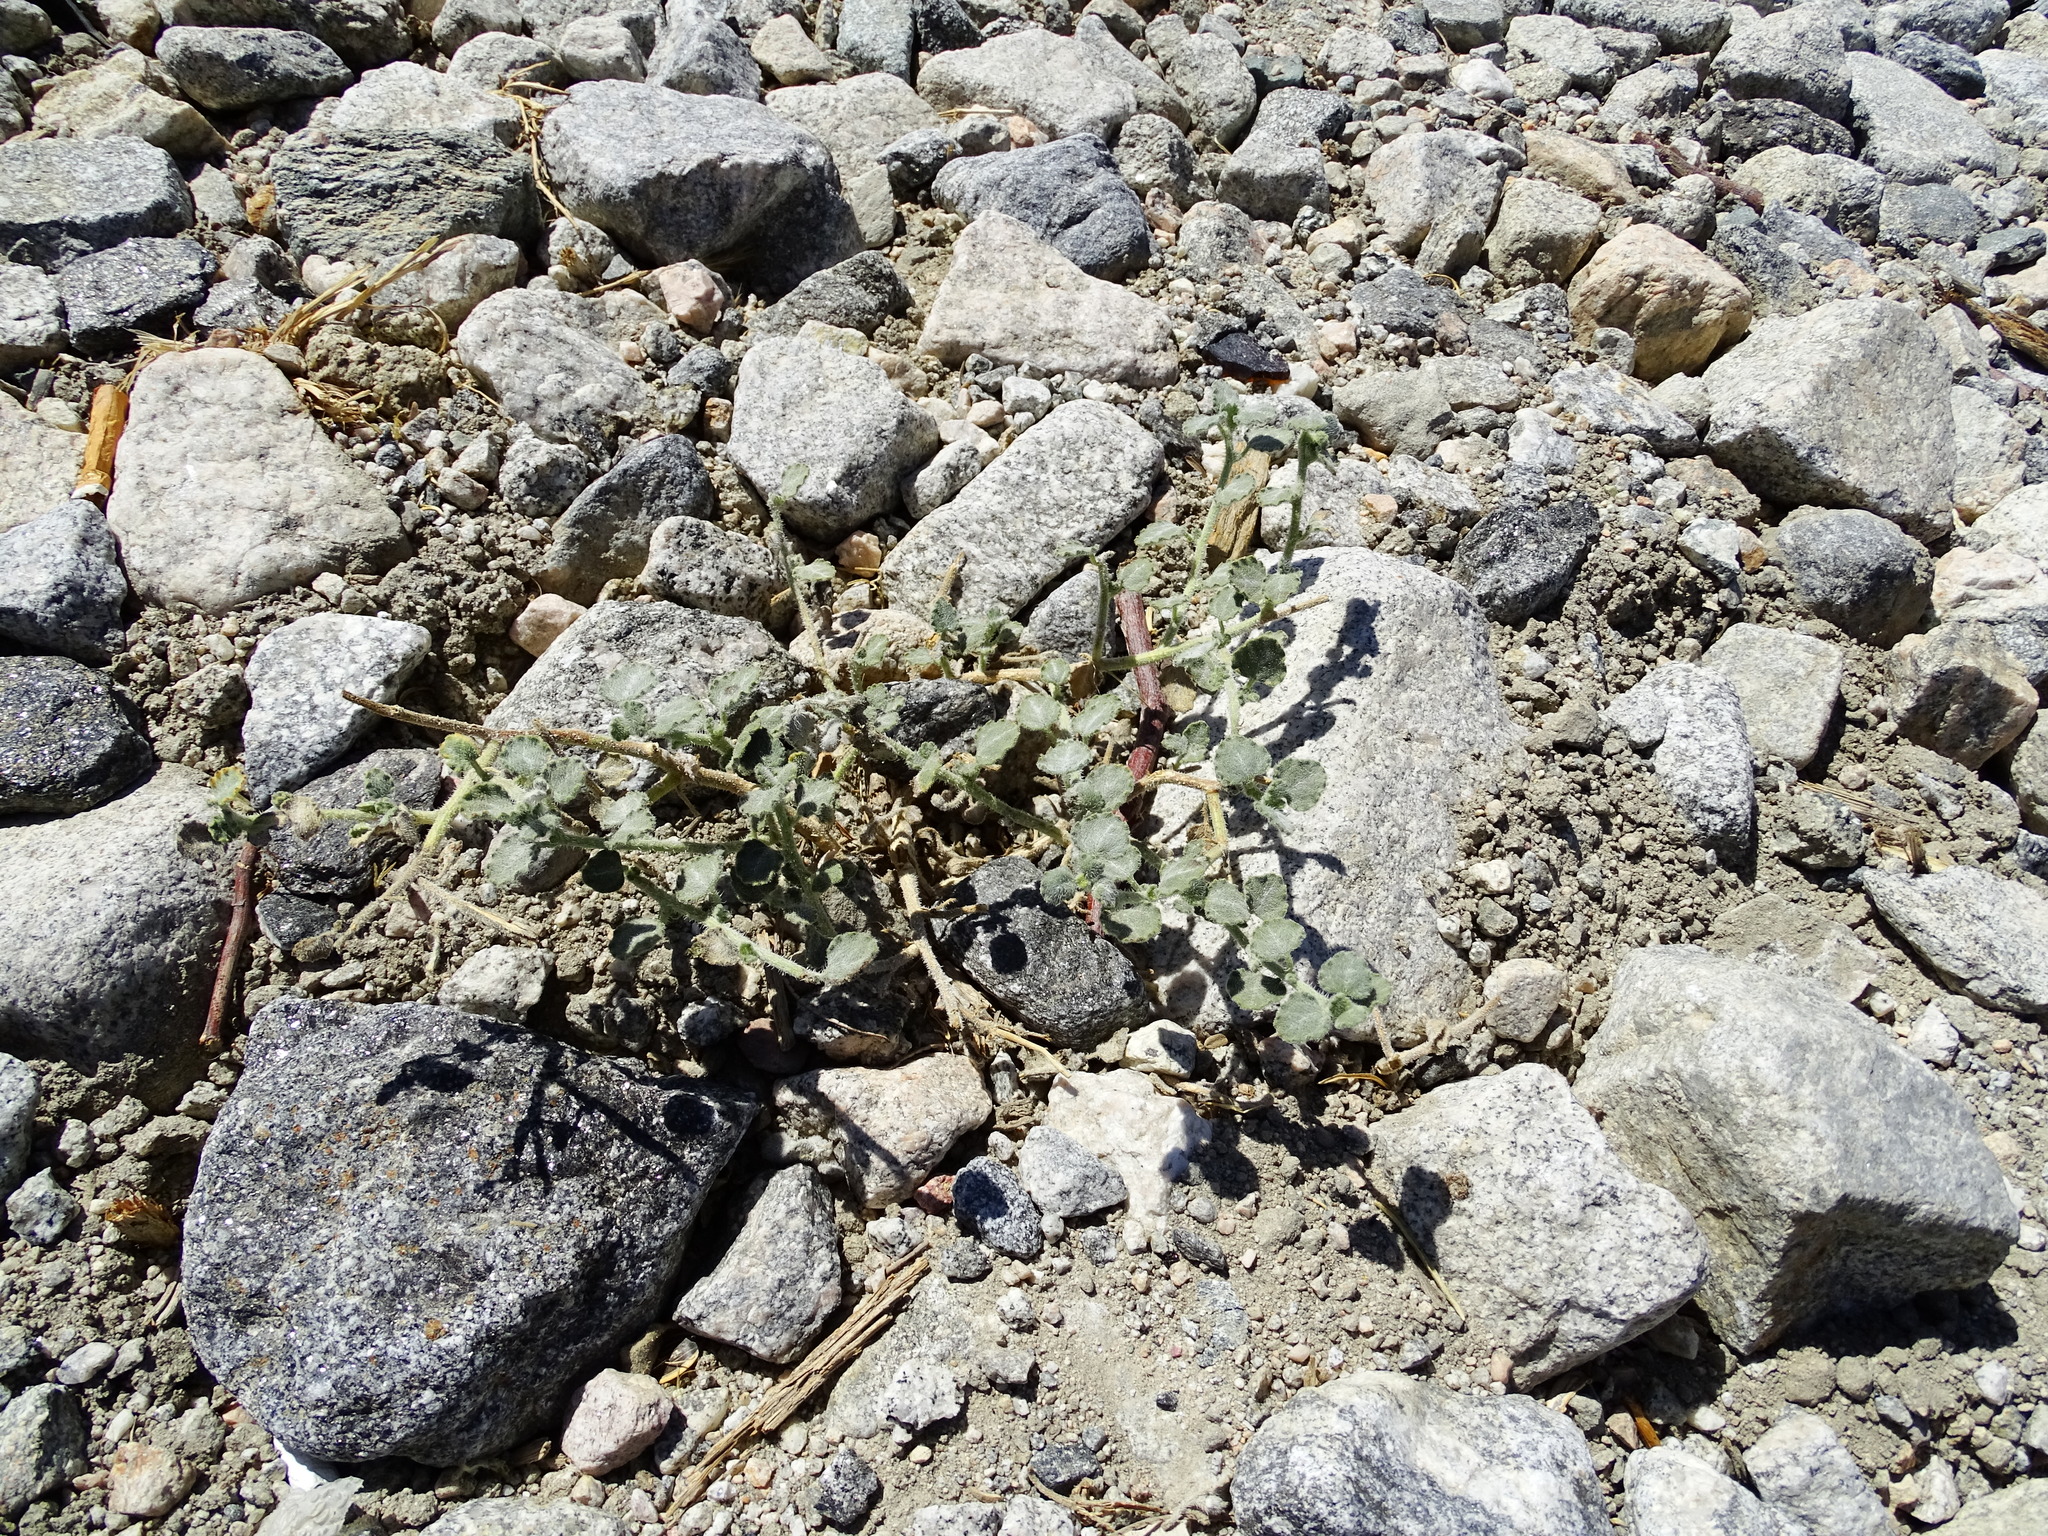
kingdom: Plantae
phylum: Tracheophyta
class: Magnoliopsida
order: Asterales
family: Asteraceae
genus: Dicoria
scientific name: Dicoria canescens
